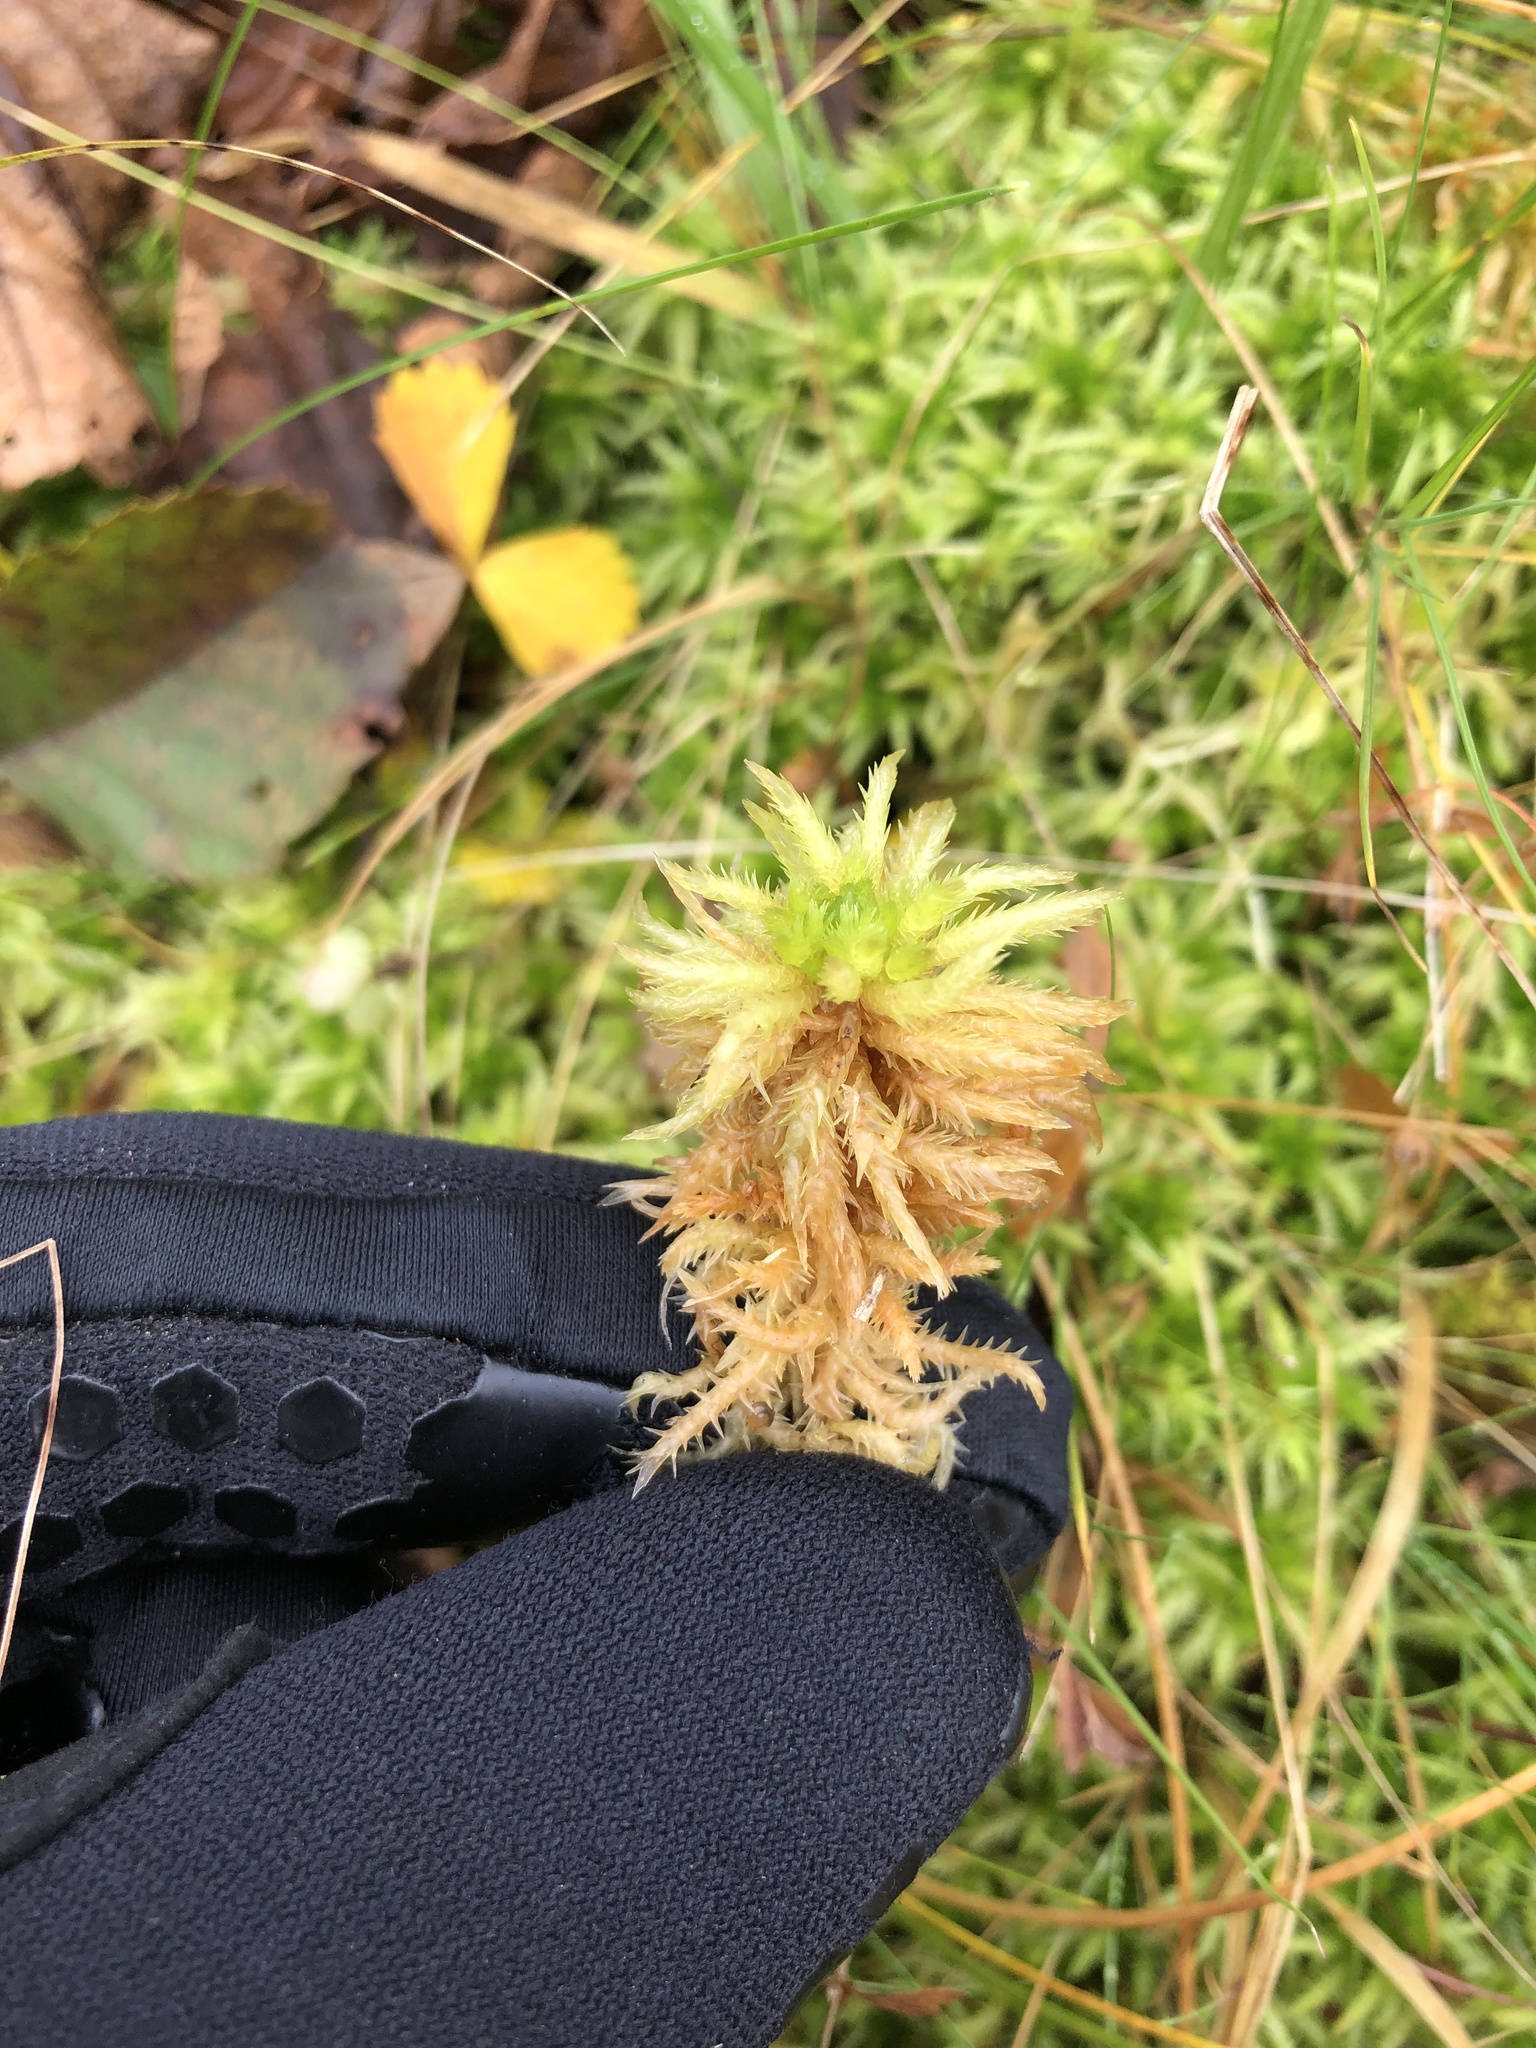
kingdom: Plantae
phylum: Bryophyta
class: Sphagnopsida
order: Sphagnales
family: Sphagnaceae
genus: Sphagnum
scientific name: Sphagnum squarrosum
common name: Shaggy peat moss
